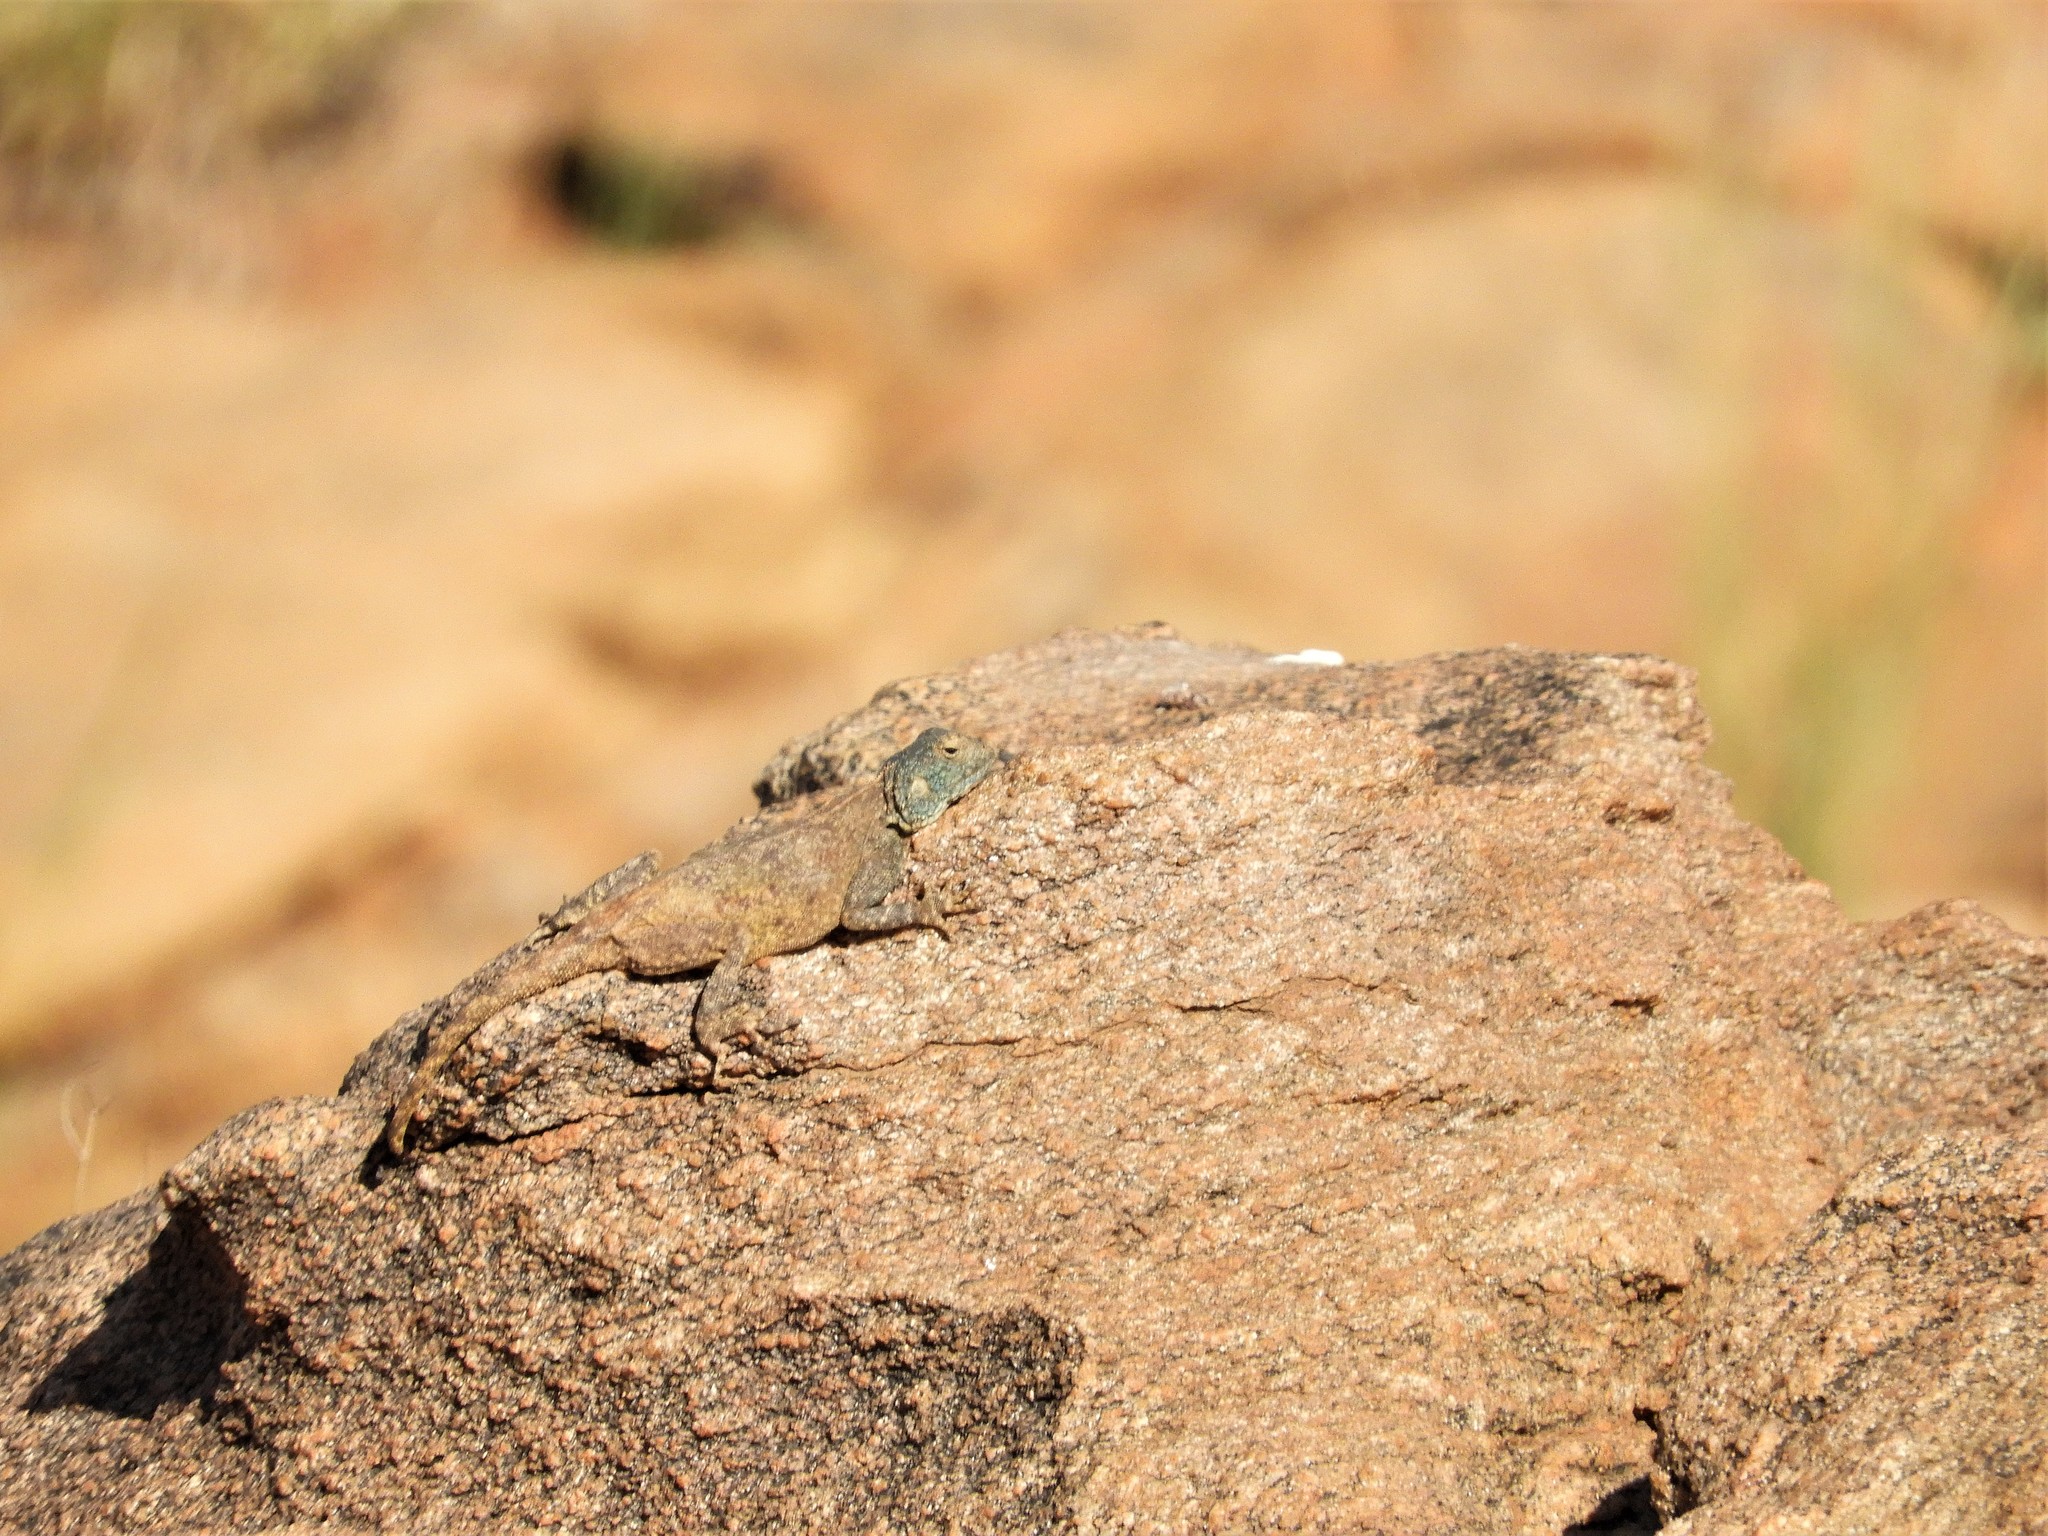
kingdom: Animalia
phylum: Chordata
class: Squamata
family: Agamidae
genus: Agama
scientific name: Agama atra
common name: Southern african rock agama
